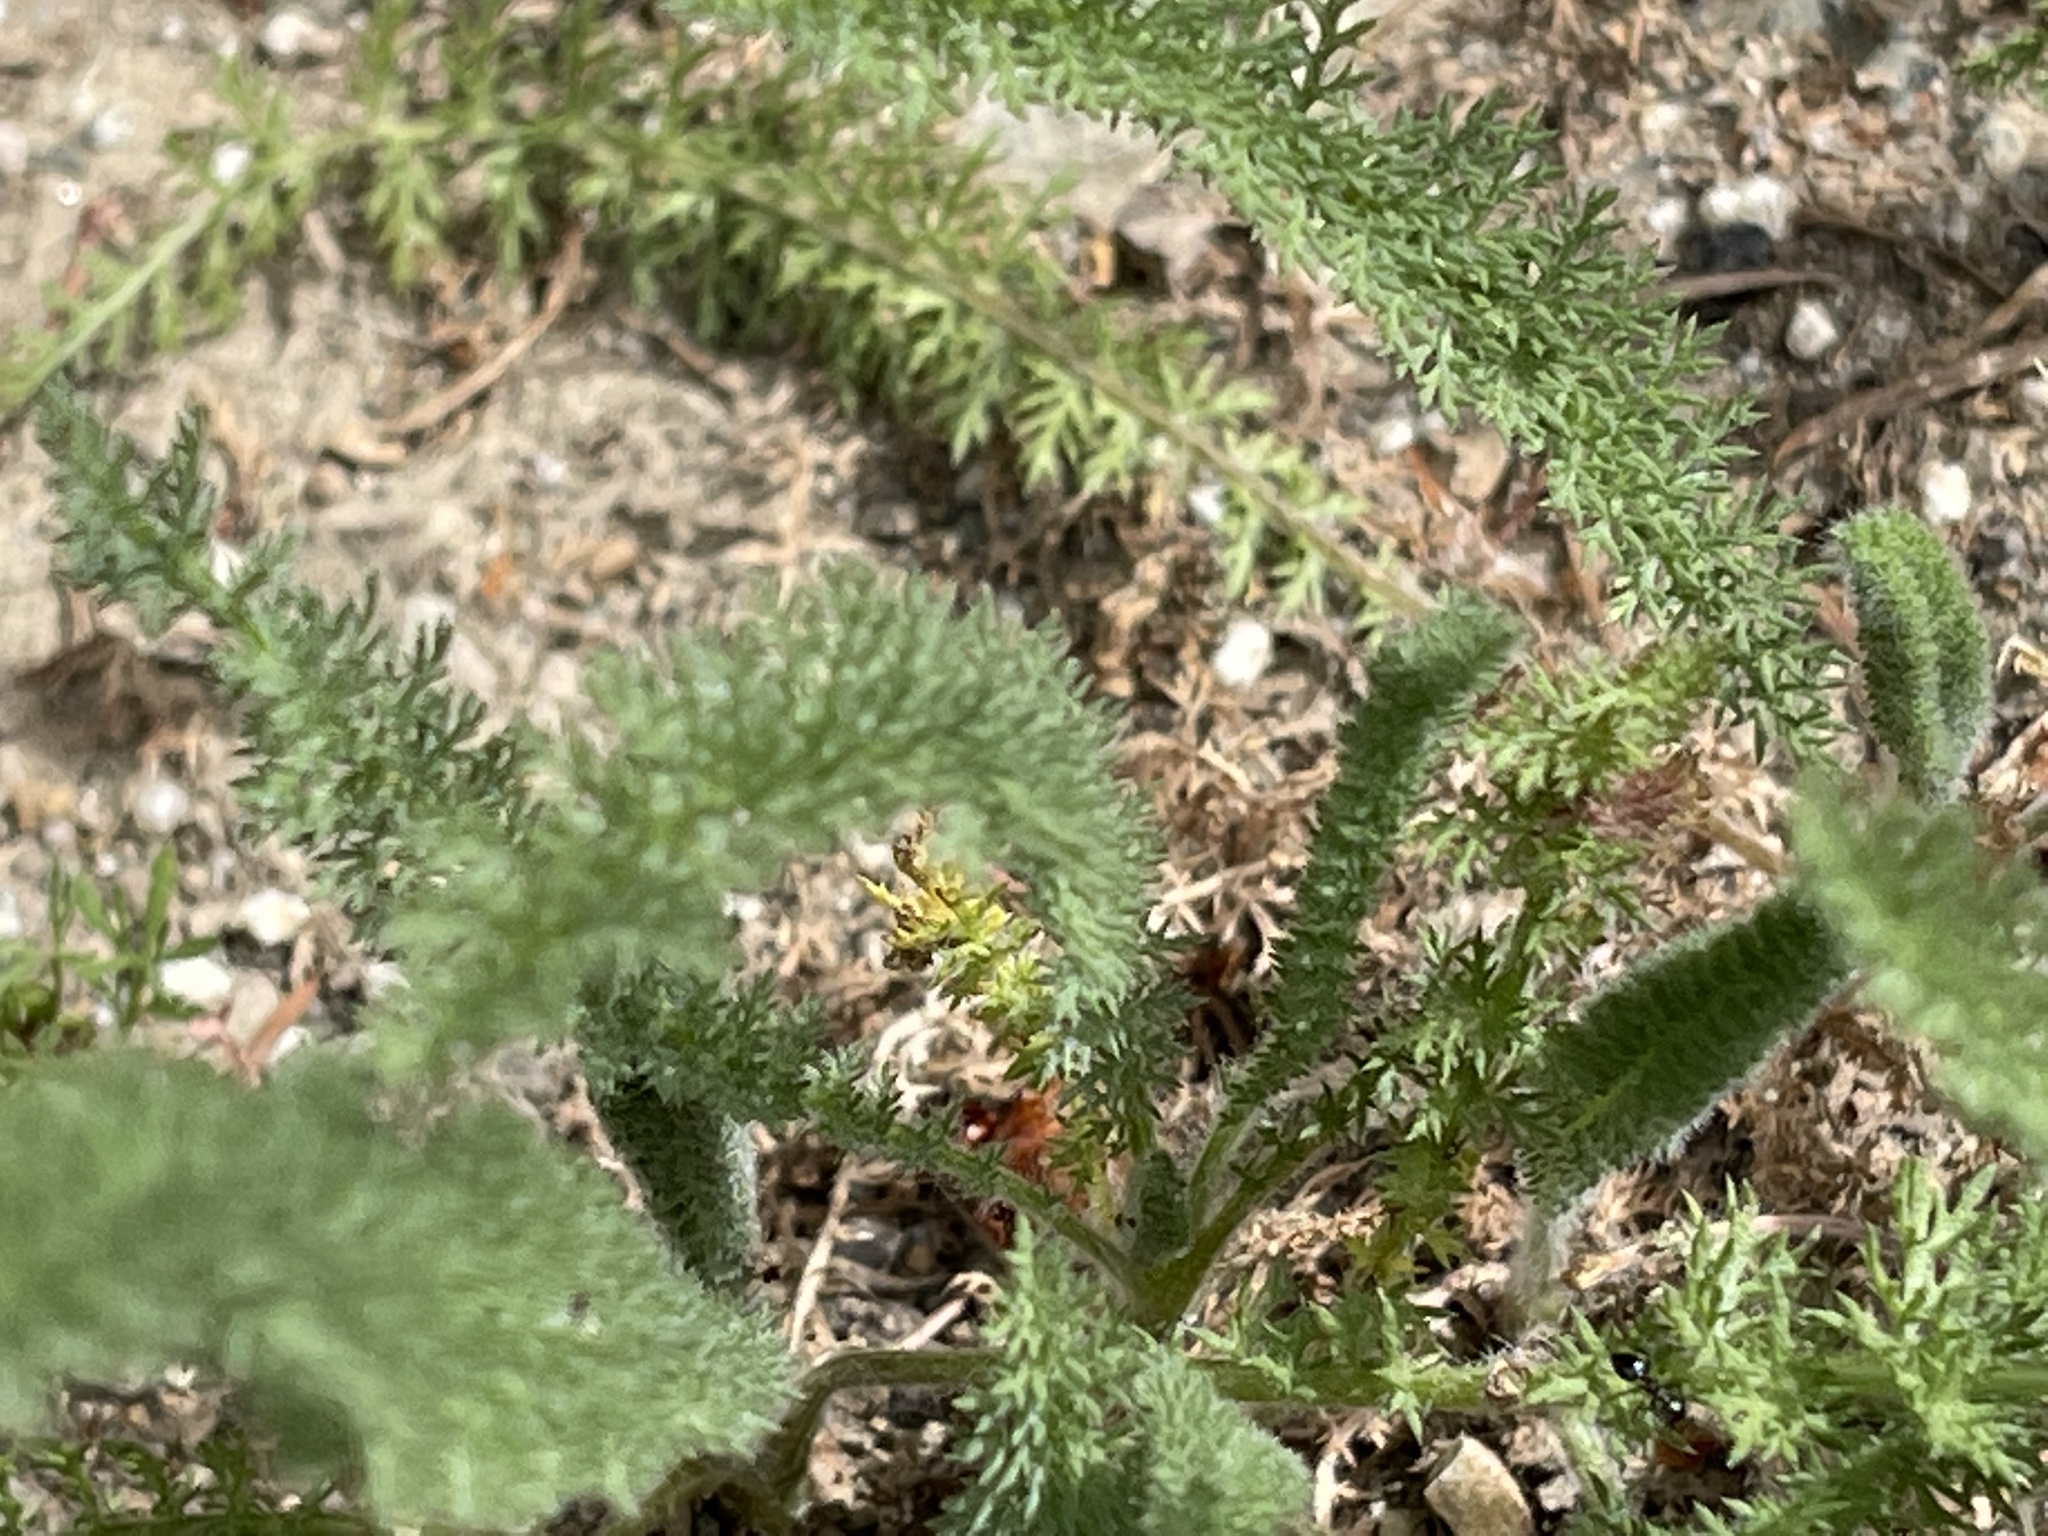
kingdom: Plantae
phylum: Tracheophyta
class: Magnoliopsida
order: Asterales
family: Asteraceae
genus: Achillea
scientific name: Achillea millefolium
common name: Yarrow
